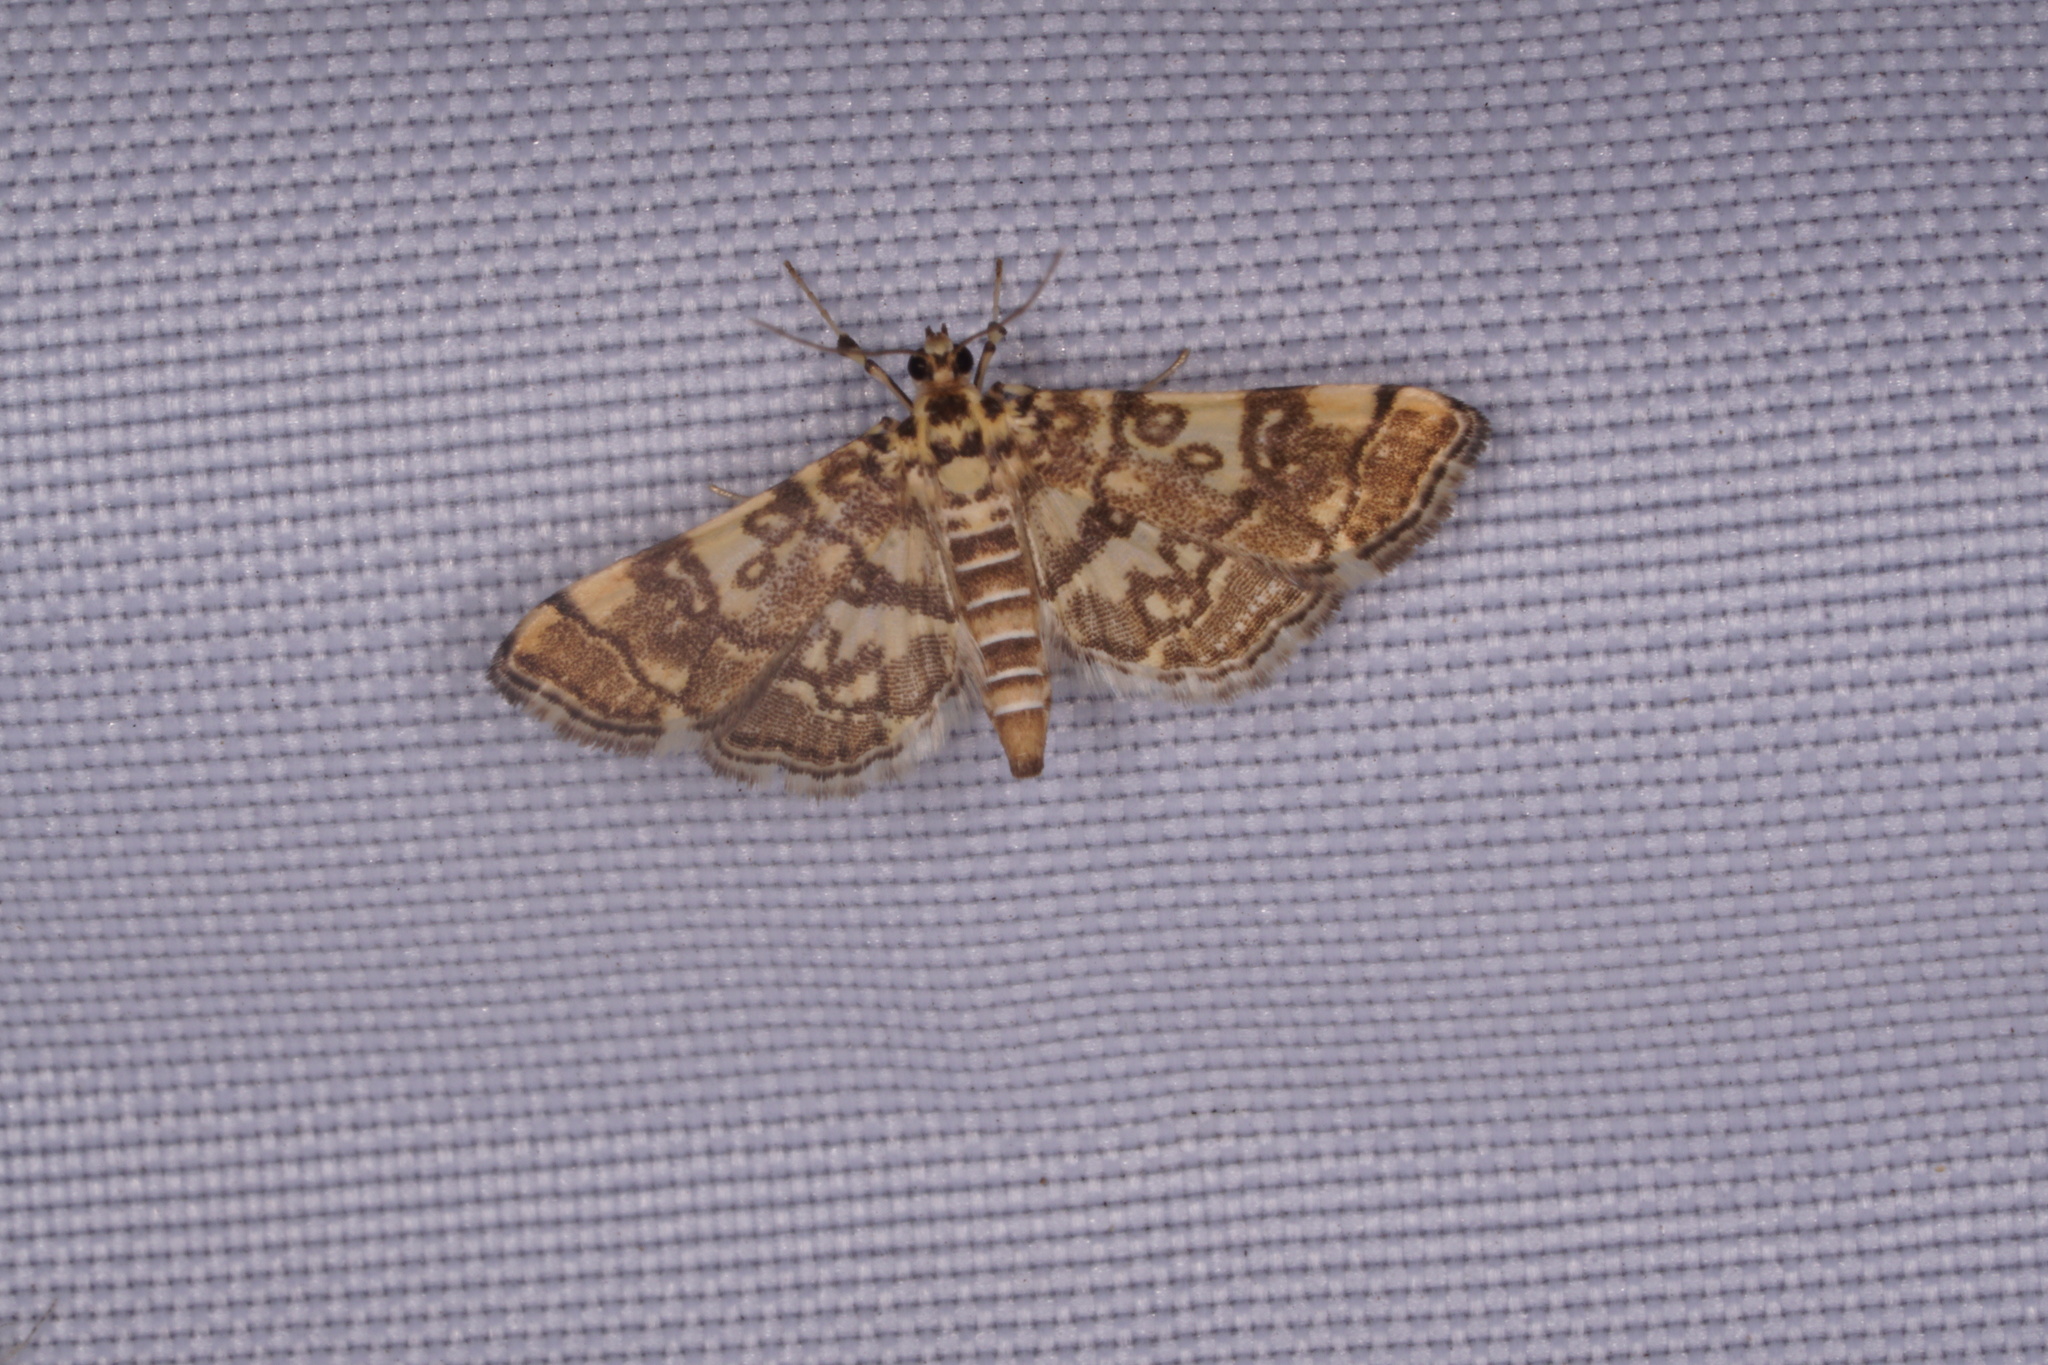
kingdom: Animalia
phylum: Arthropoda
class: Insecta
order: Lepidoptera
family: Crambidae
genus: Apogeshna
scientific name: Apogeshna stenialis
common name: Checkered apogeshna moth
